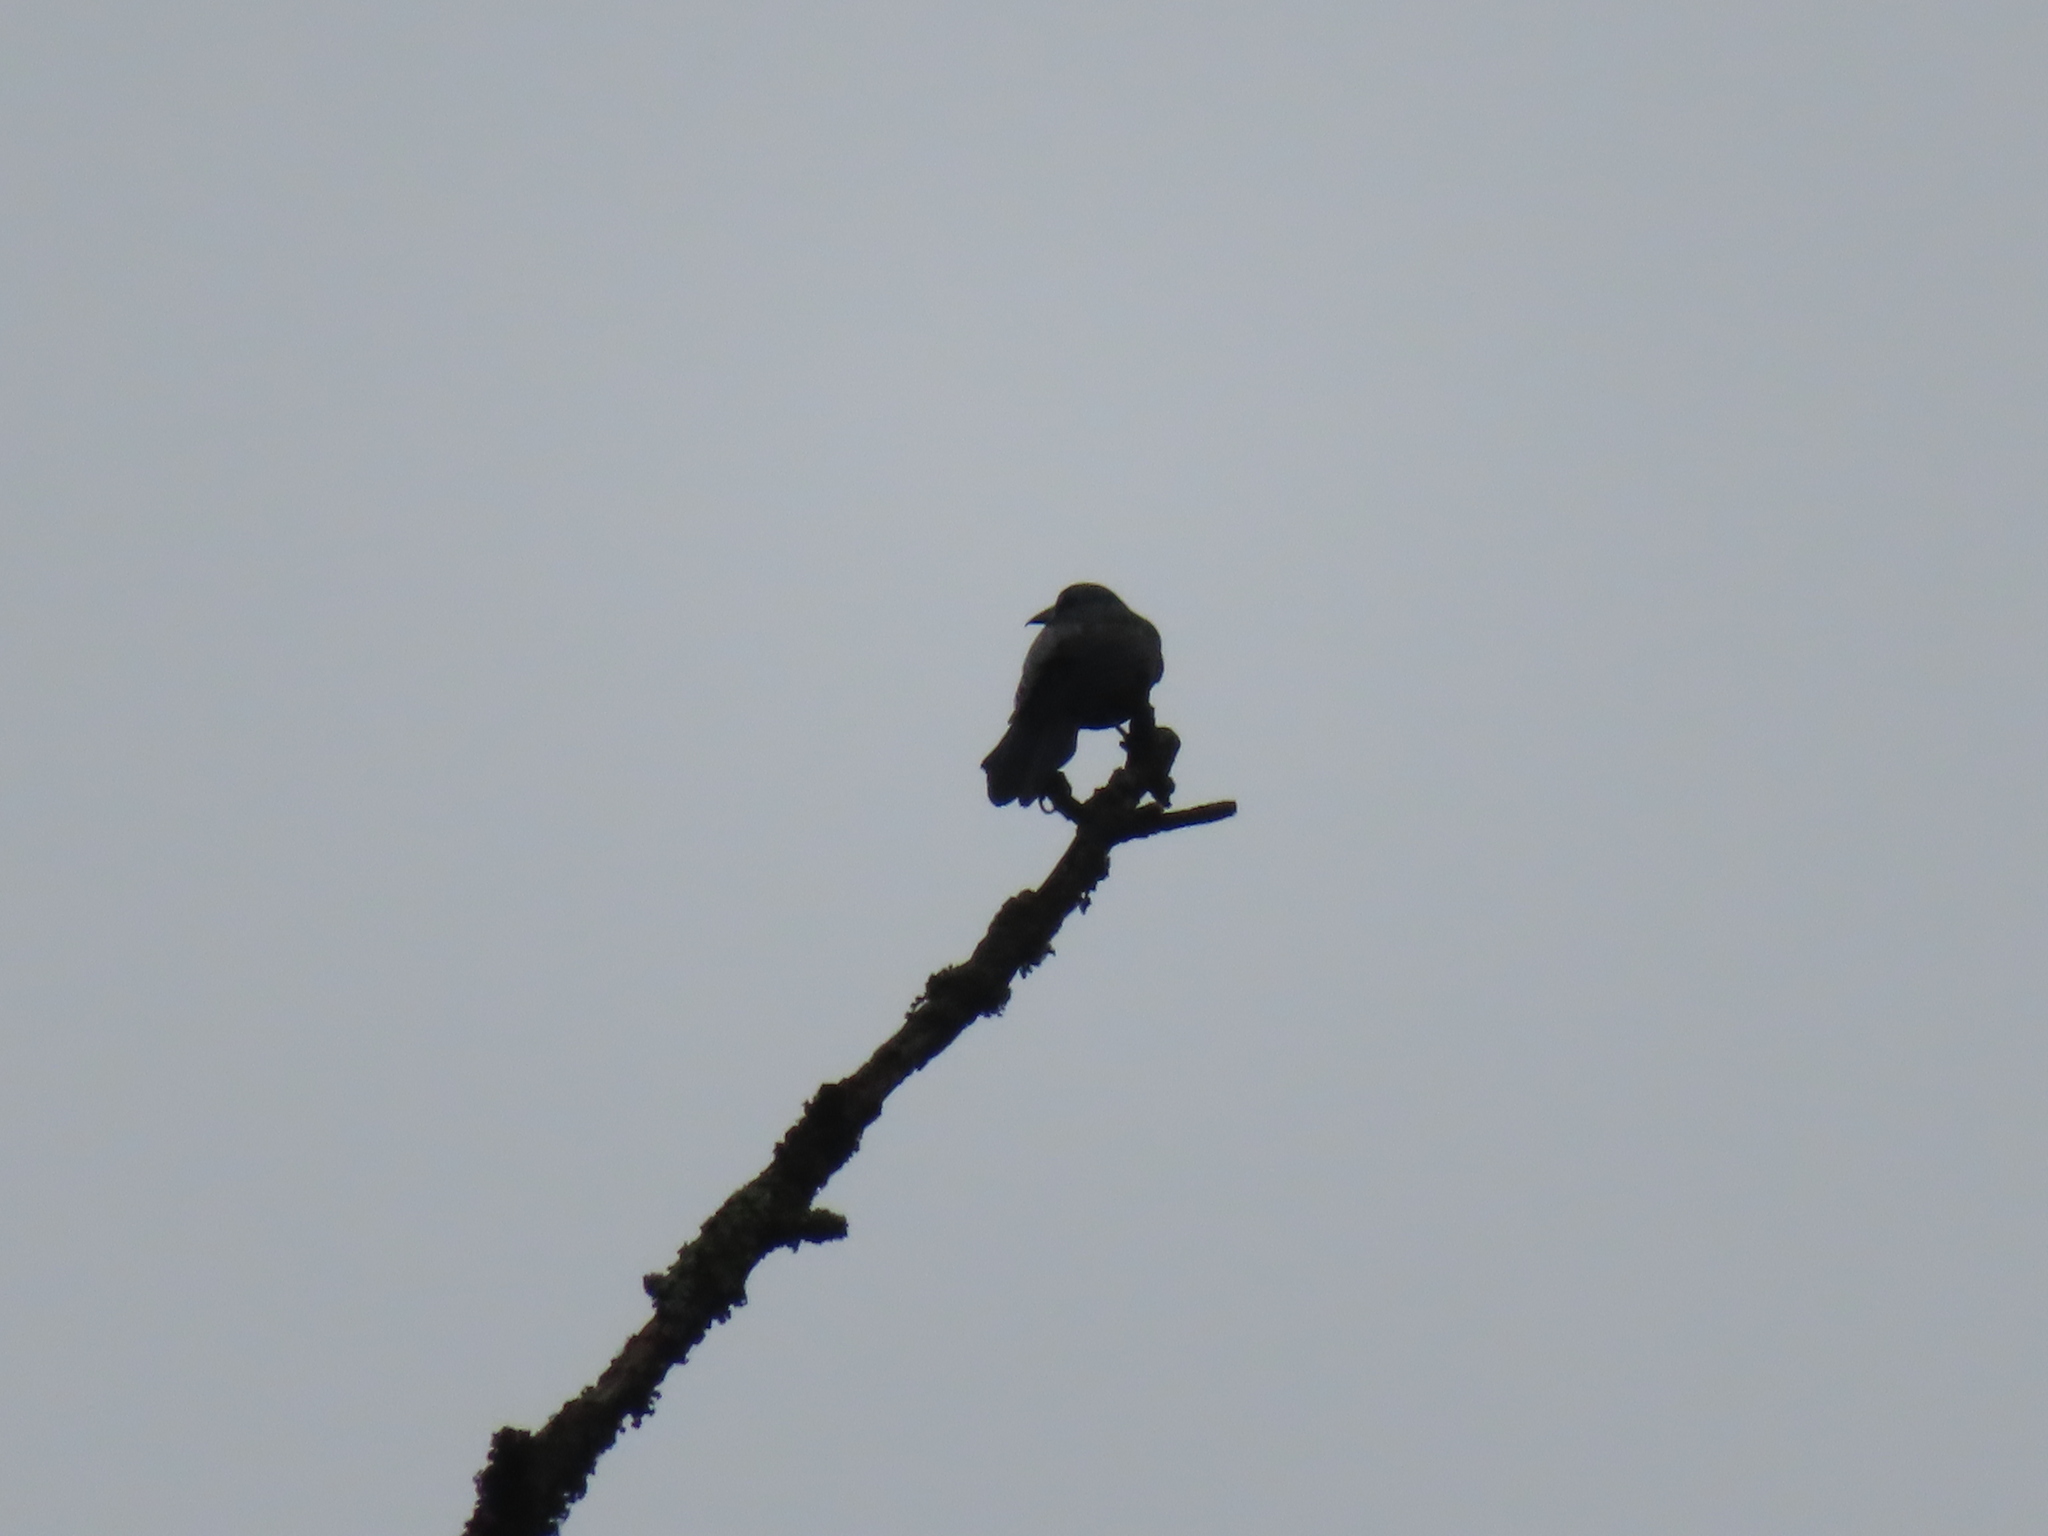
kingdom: Animalia
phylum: Chordata
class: Aves
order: Passeriformes
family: Icteridae
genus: Quiscalus
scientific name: Quiscalus quiscula
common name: Common grackle
